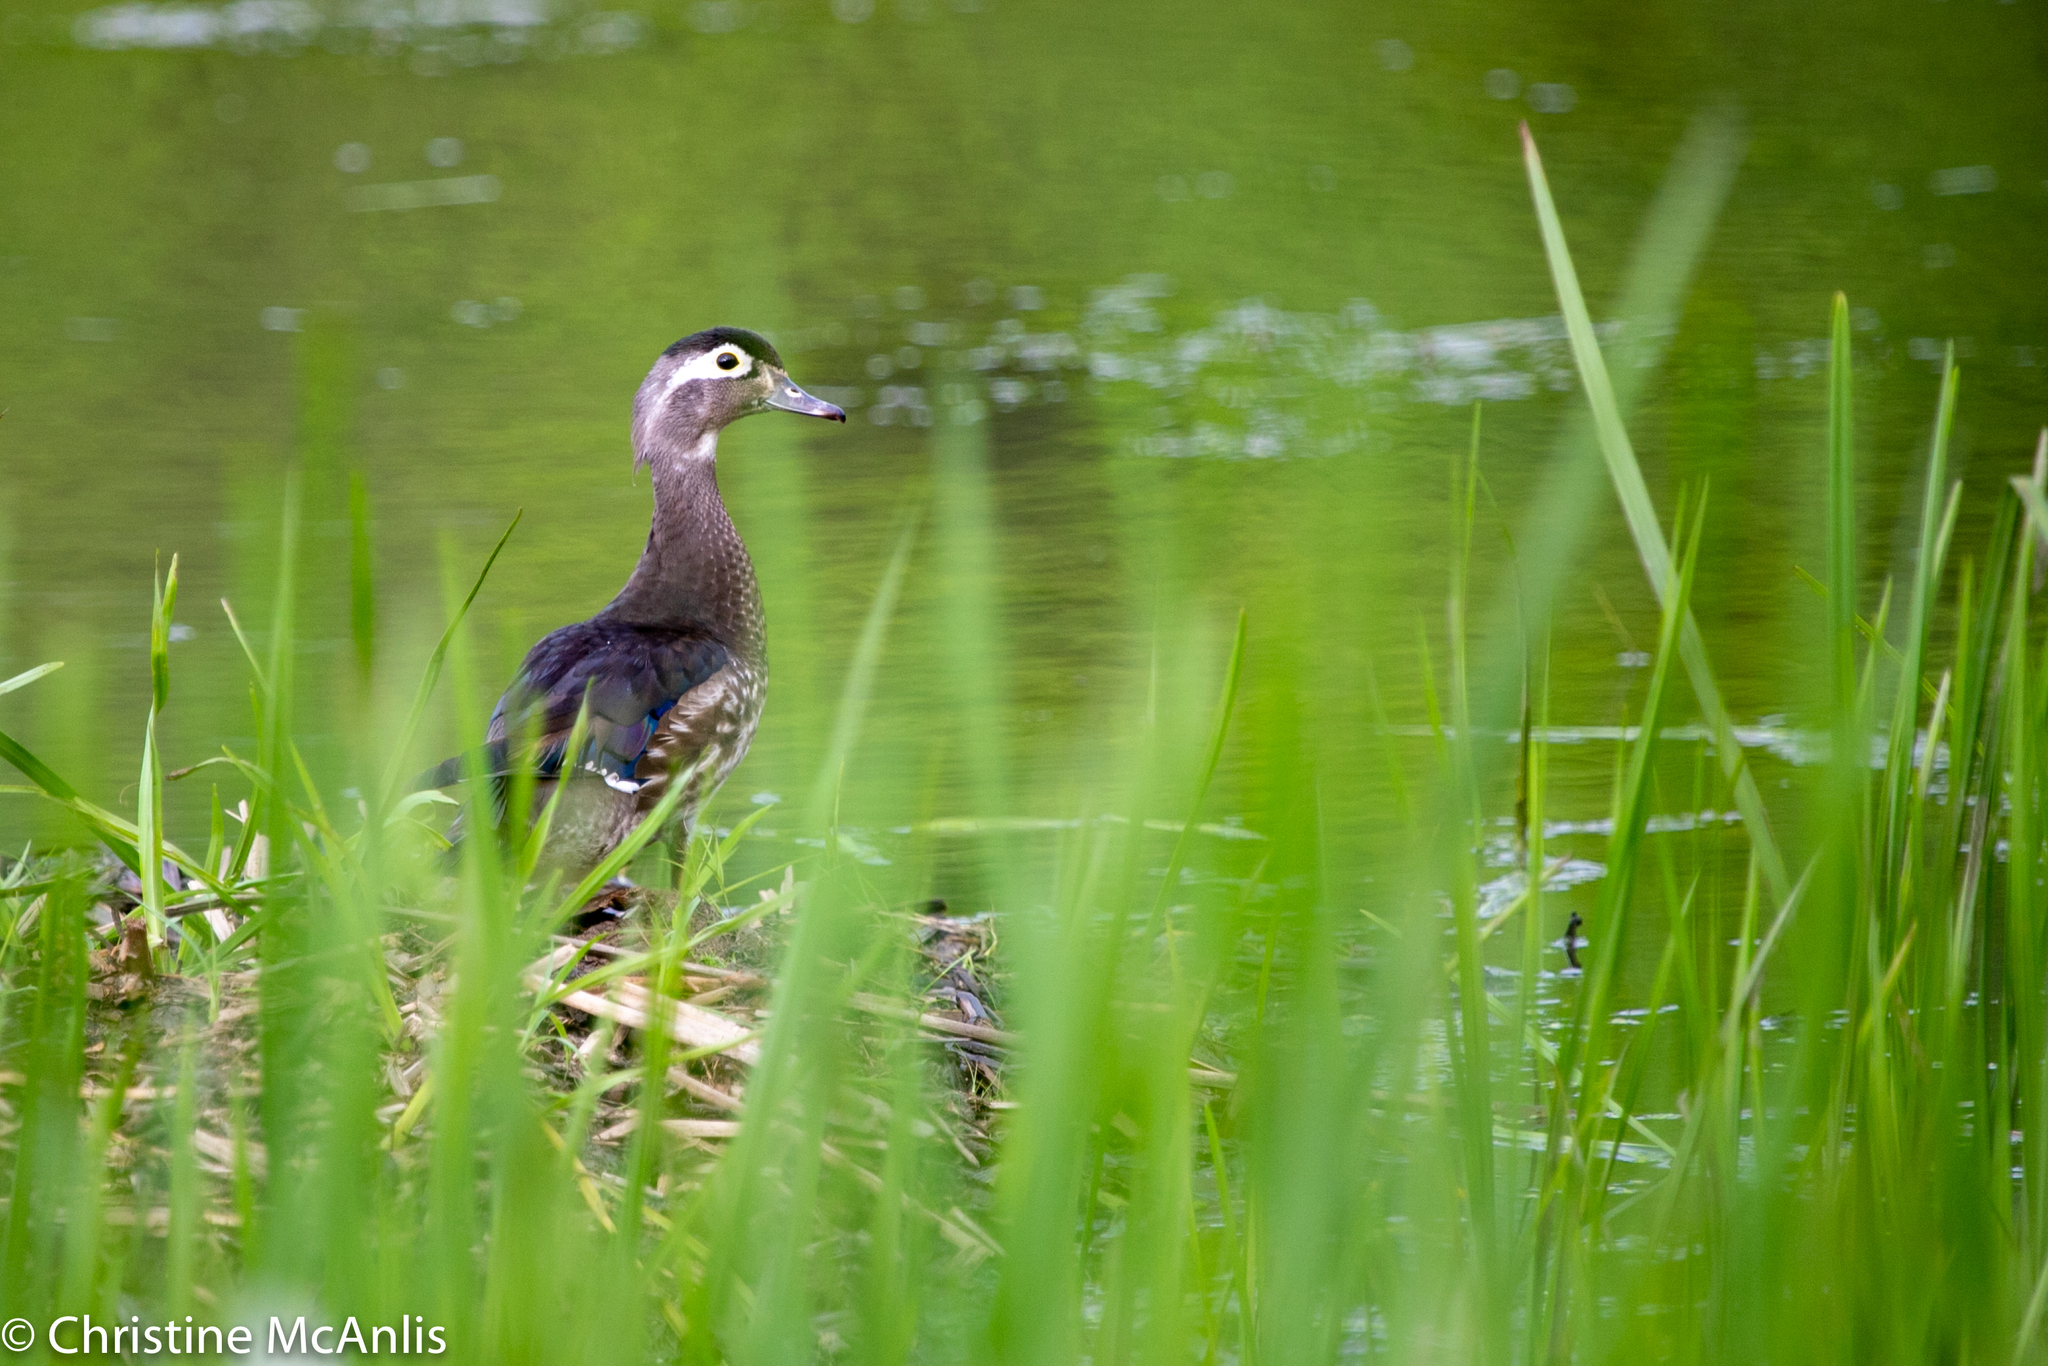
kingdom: Animalia
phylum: Chordata
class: Aves
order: Anseriformes
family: Anatidae
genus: Aix
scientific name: Aix sponsa
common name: Wood duck
